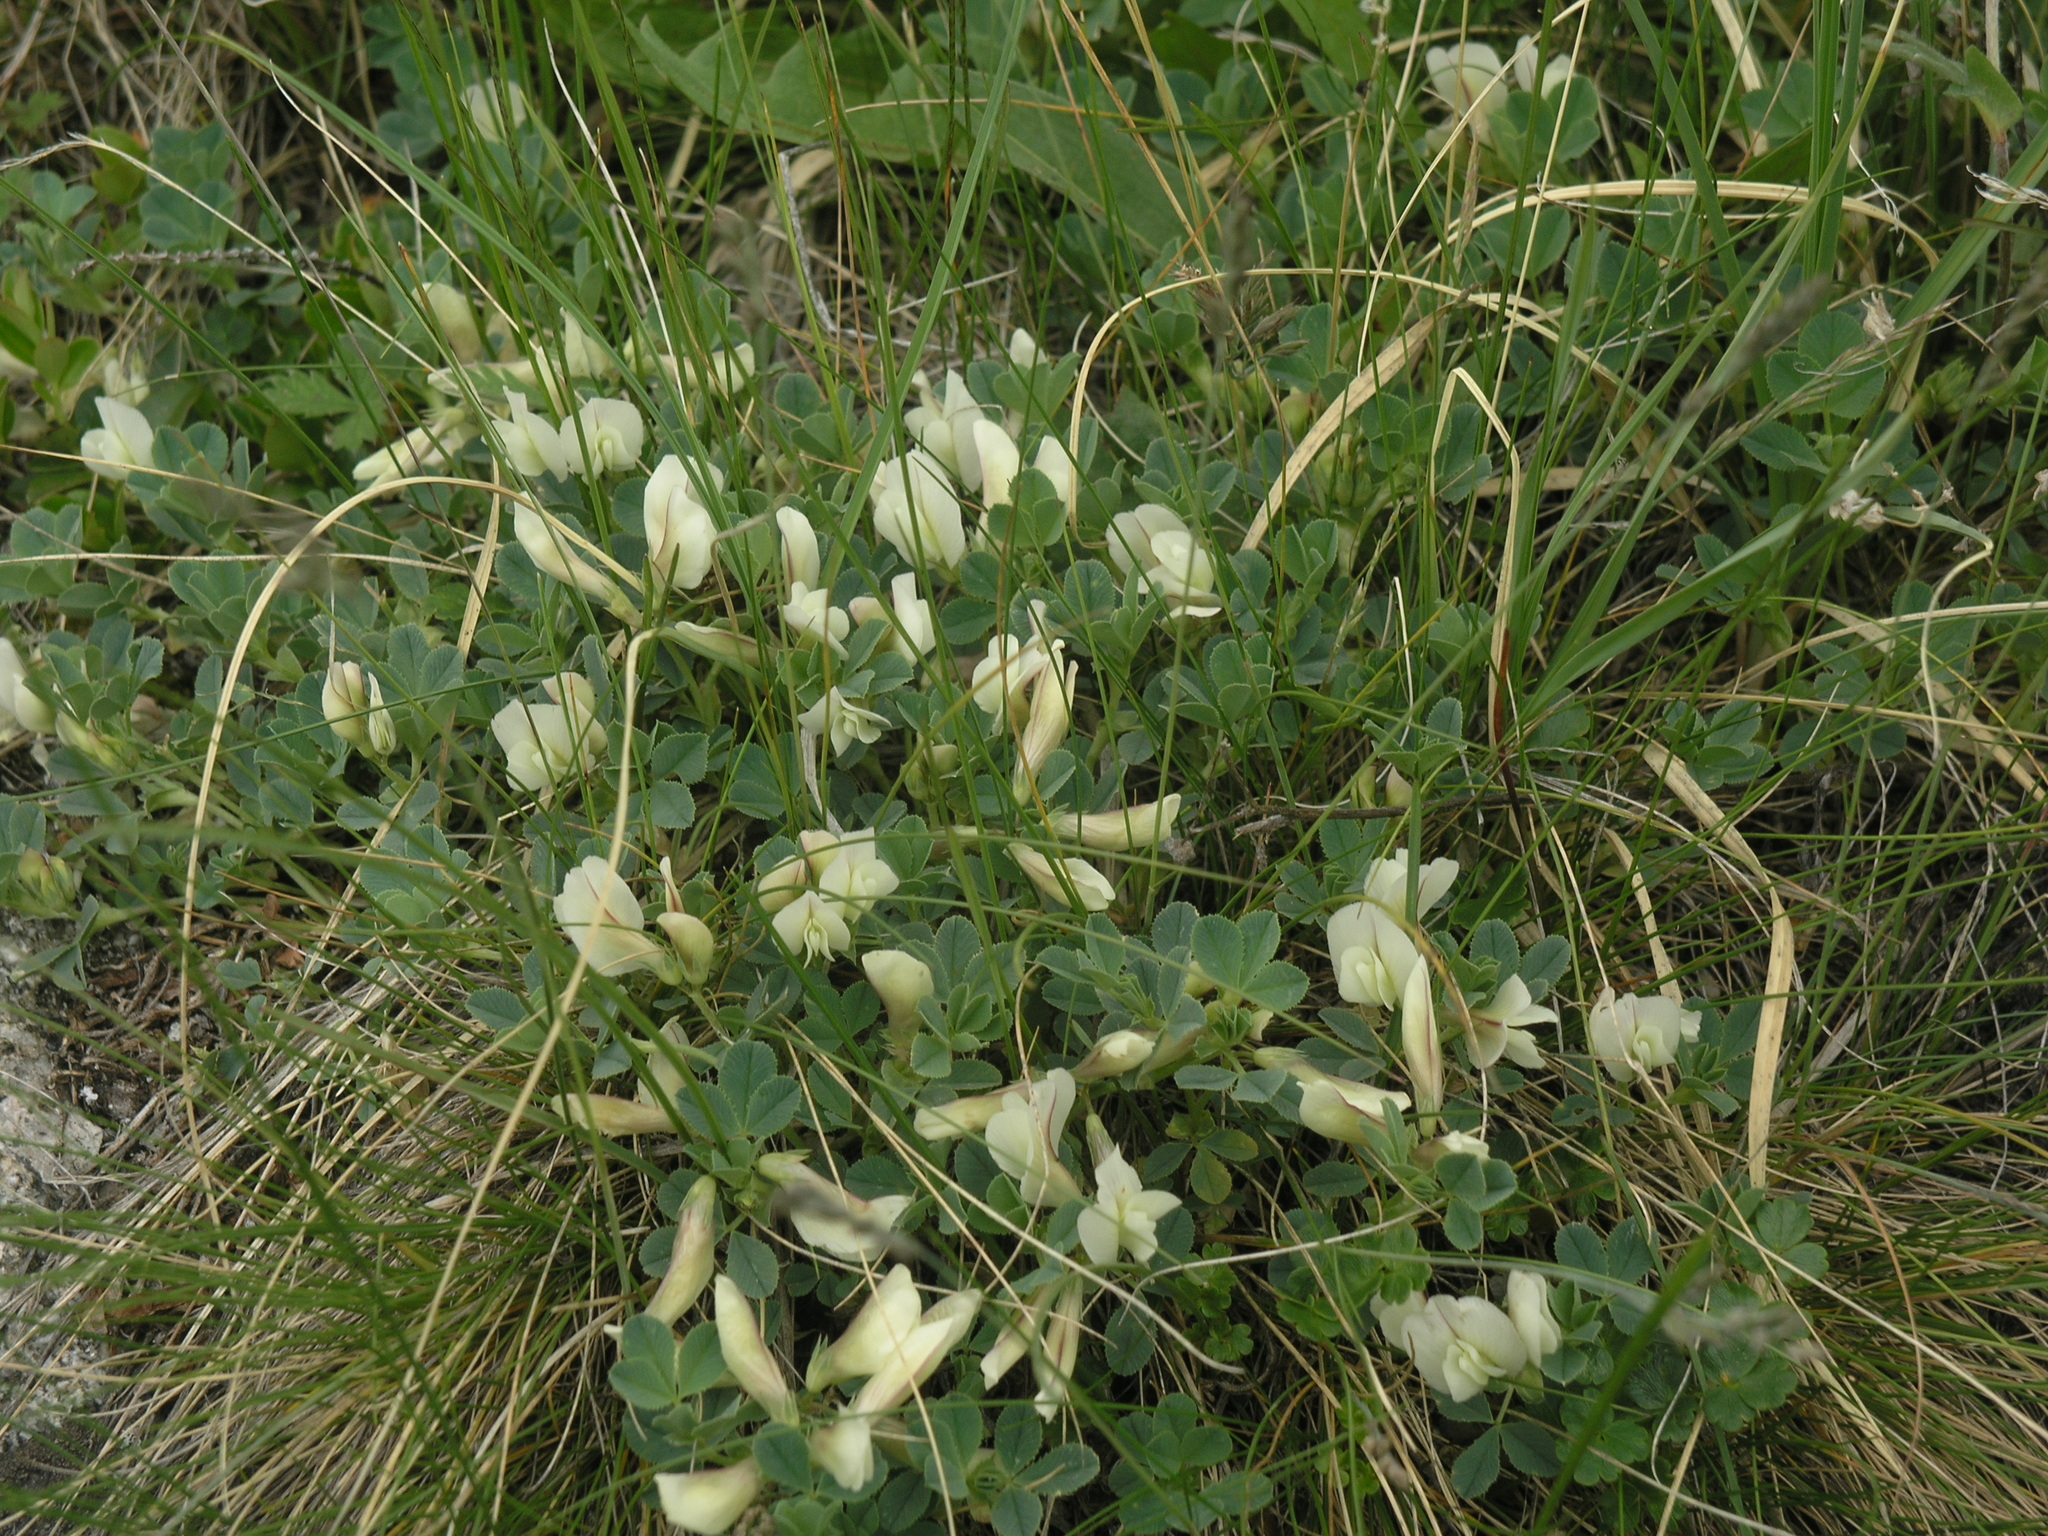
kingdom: Plantae
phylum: Tracheophyta
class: Magnoliopsida
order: Fabales
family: Fabaceae
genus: Trifolium
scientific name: Trifolium eximium
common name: Excellent clover
